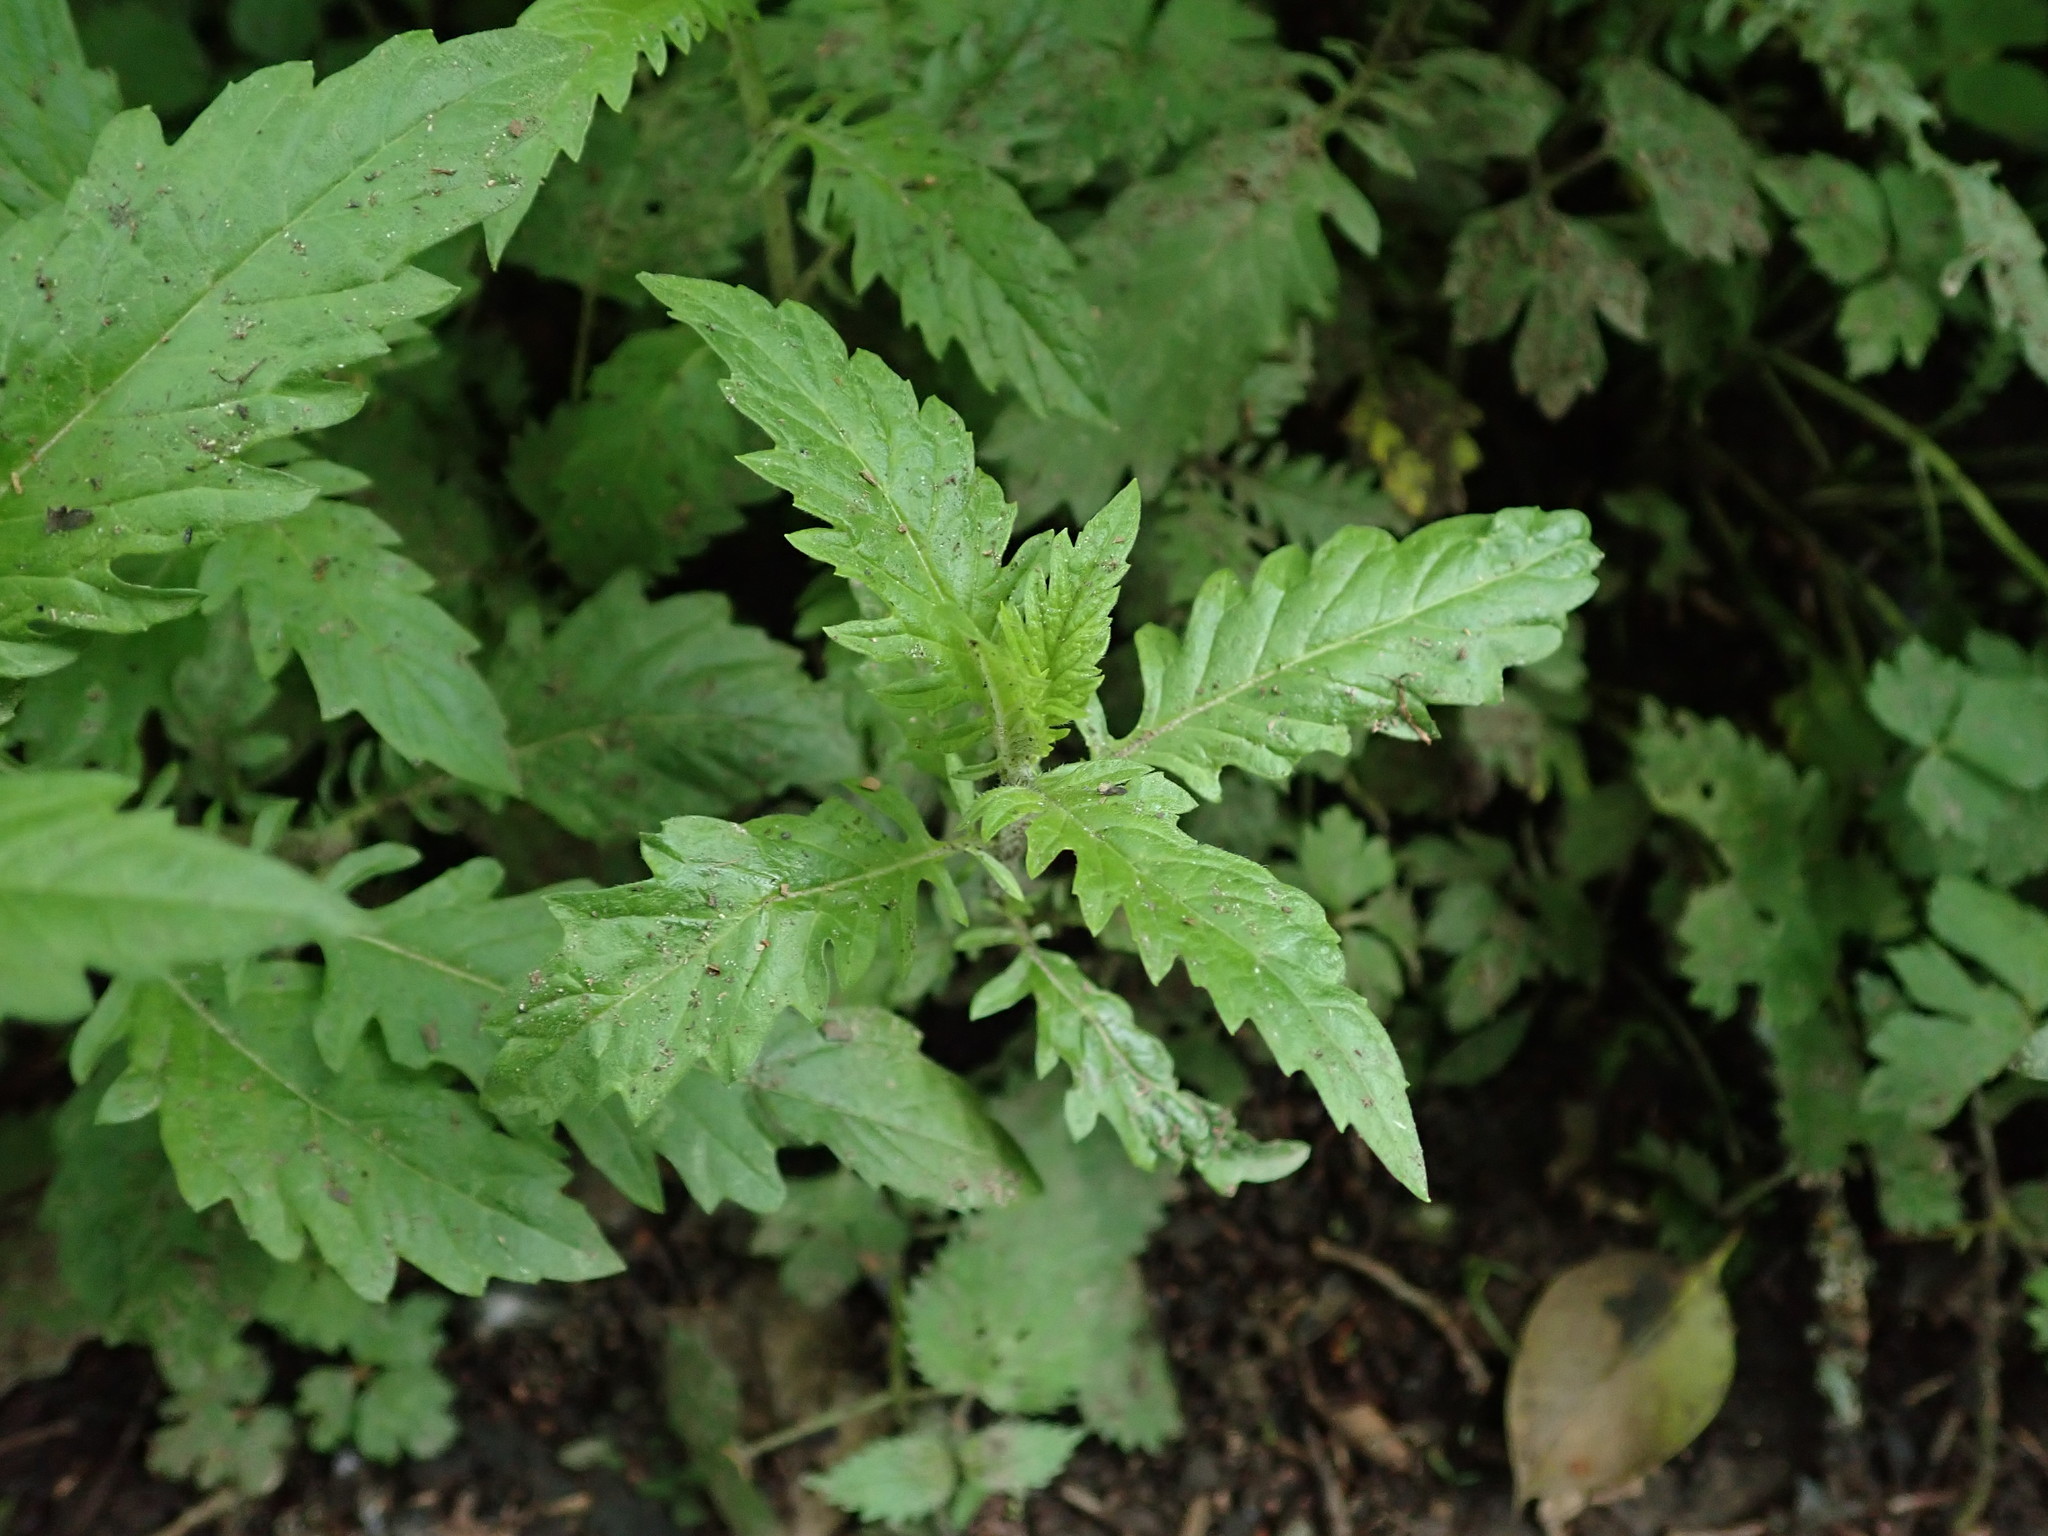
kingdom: Plantae
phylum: Tracheophyta
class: Magnoliopsida
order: Lamiales
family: Lamiaceae
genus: Lycopus
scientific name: Lycopus europaeus
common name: European bugleweed
